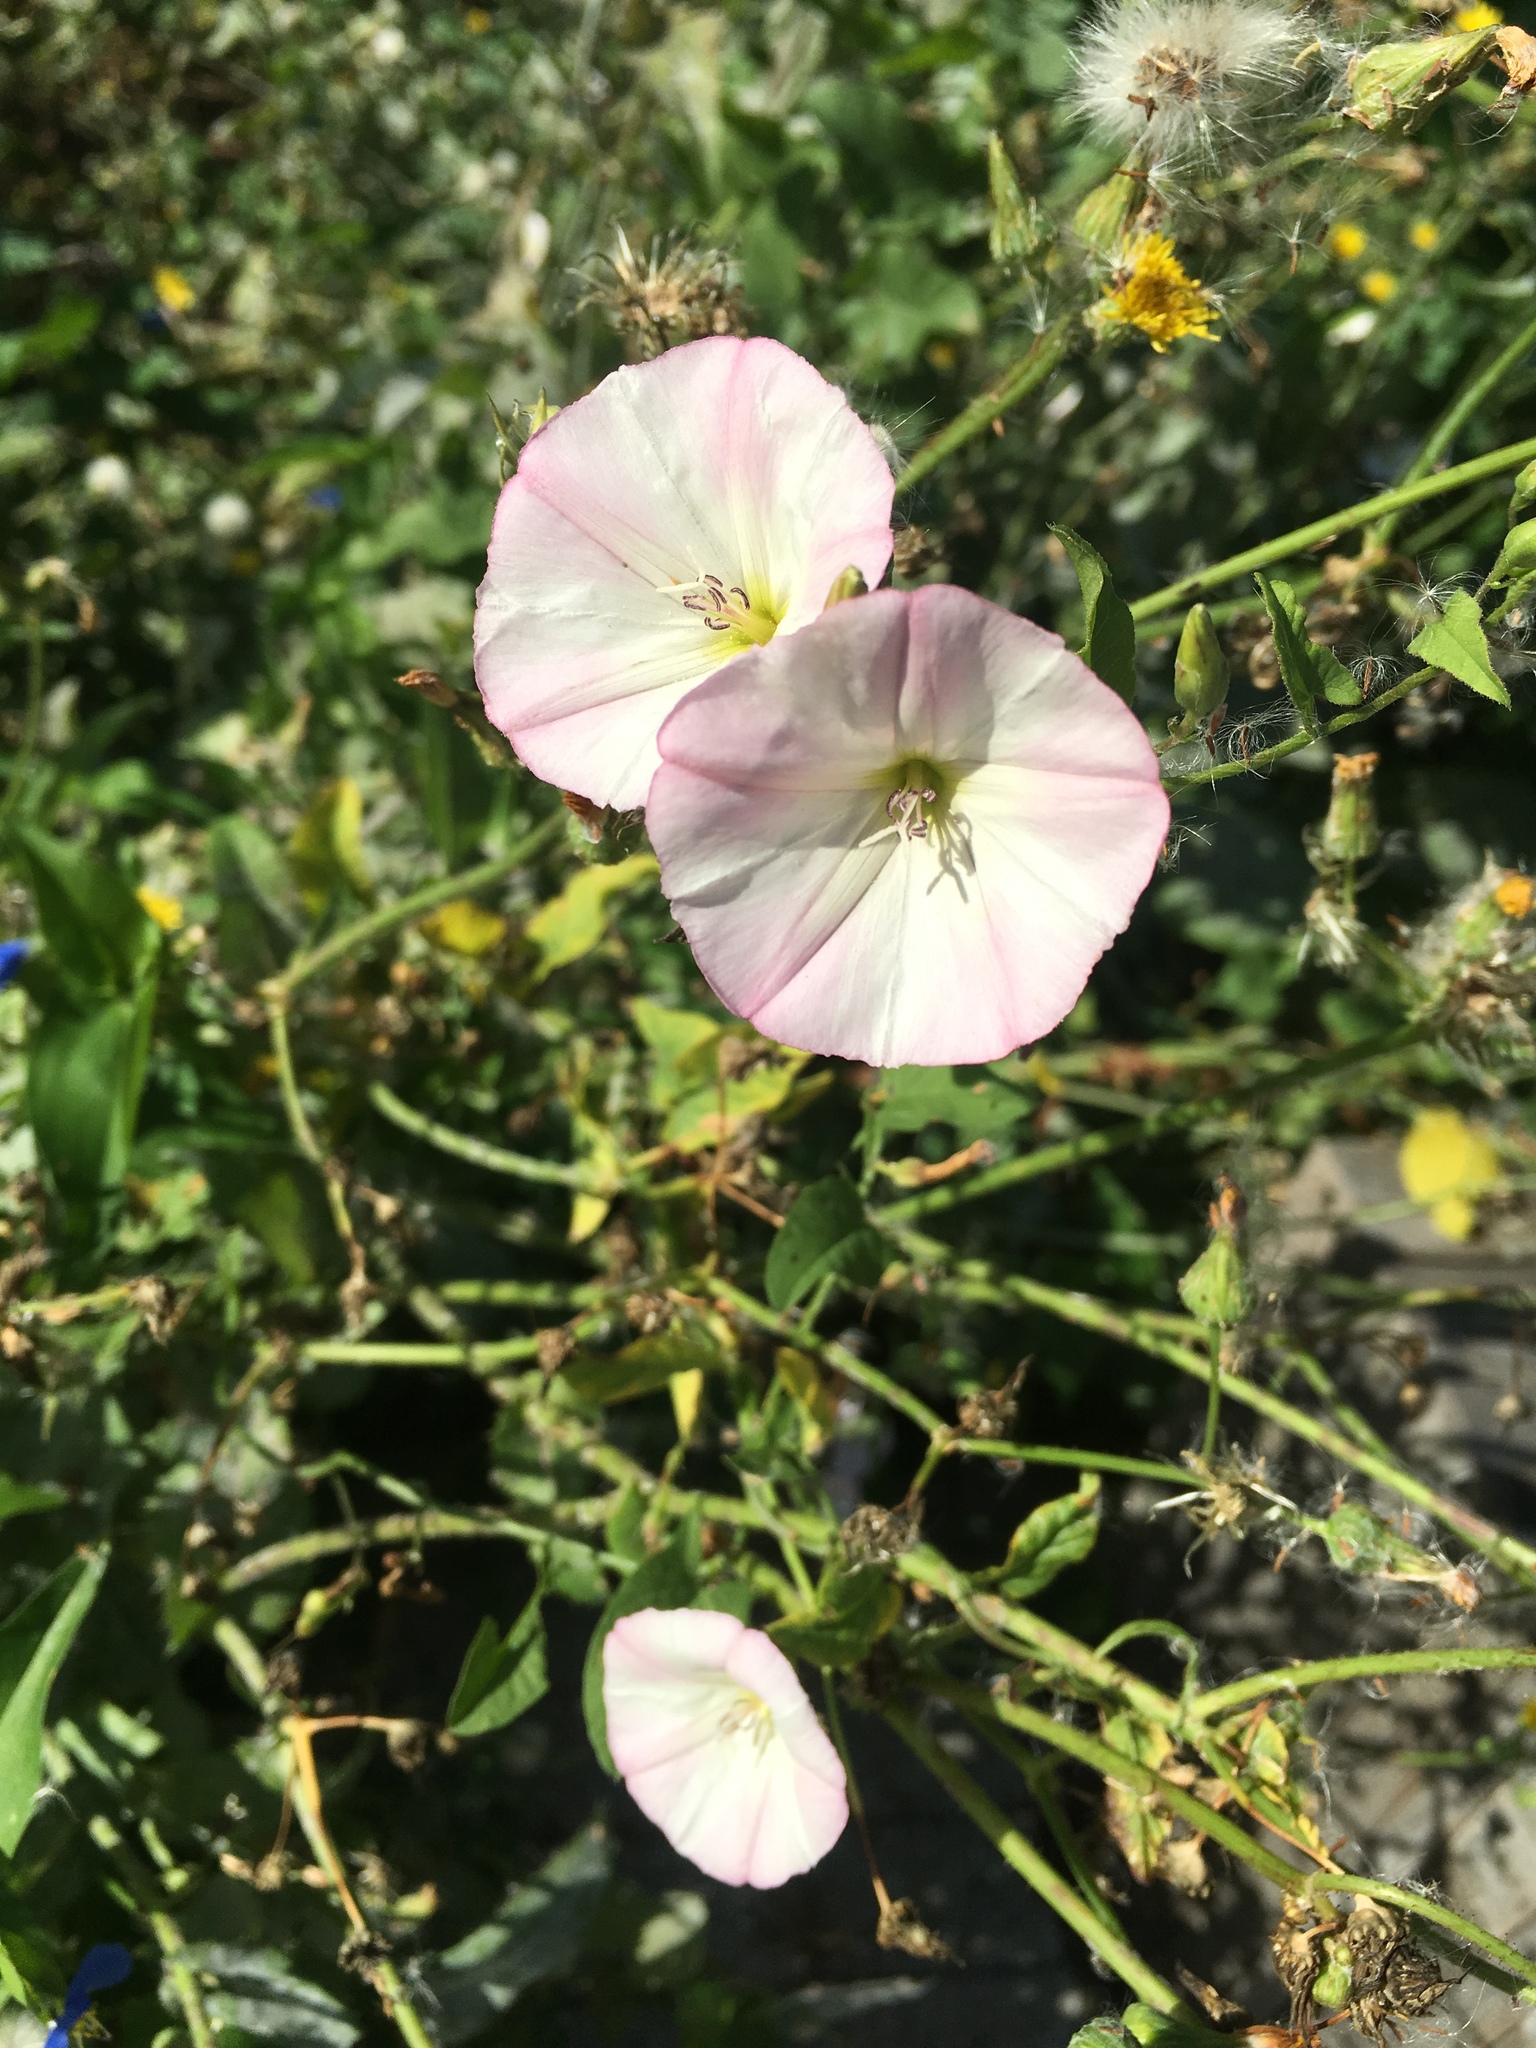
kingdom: Plantae
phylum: Tracheophyta
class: Magnoliopsida
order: Solanales
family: Convolvulaceae
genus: Convolvulus
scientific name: Convolvulus arvensis
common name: Field bindweed
